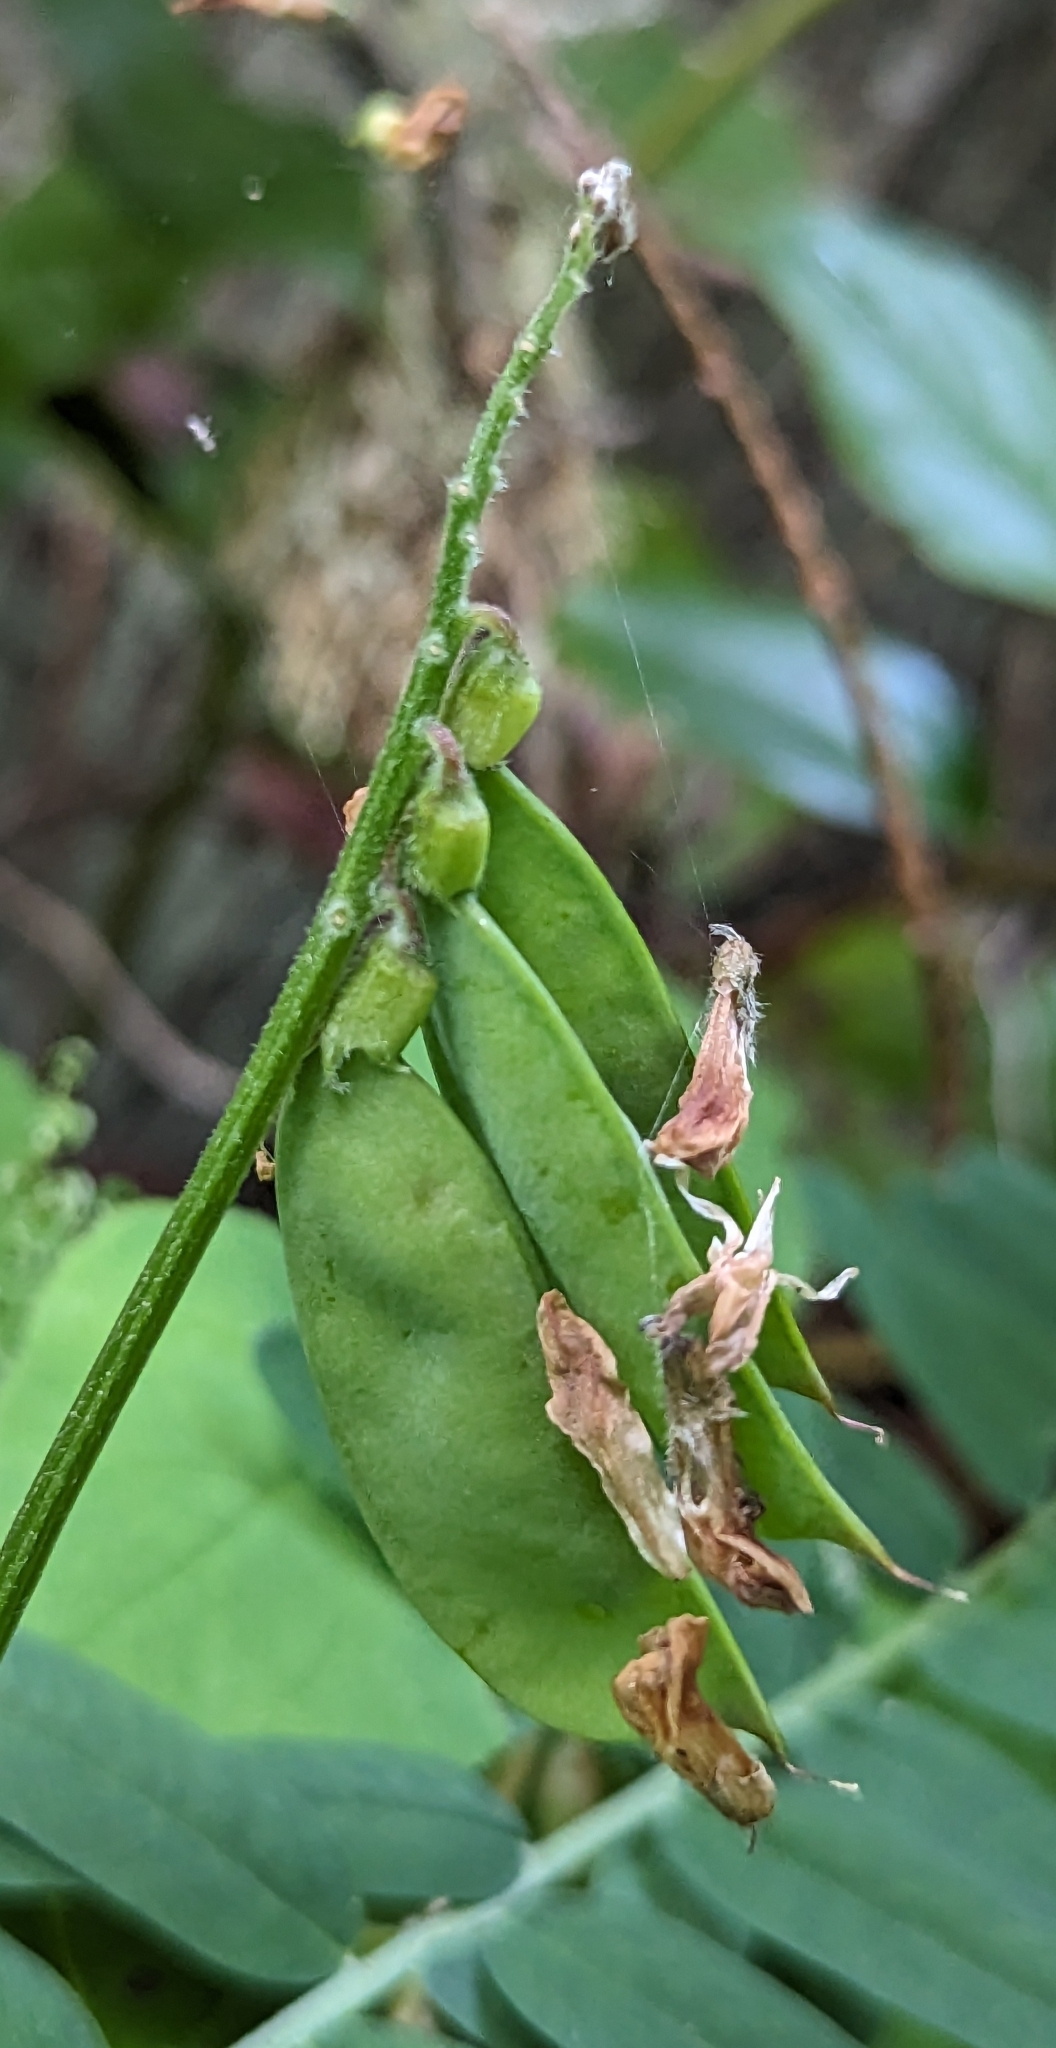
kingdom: Plantae
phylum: Tracheophyta
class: Magnoliopsida
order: Fabales
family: Fabaceae
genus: Vicia
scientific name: Vicia
